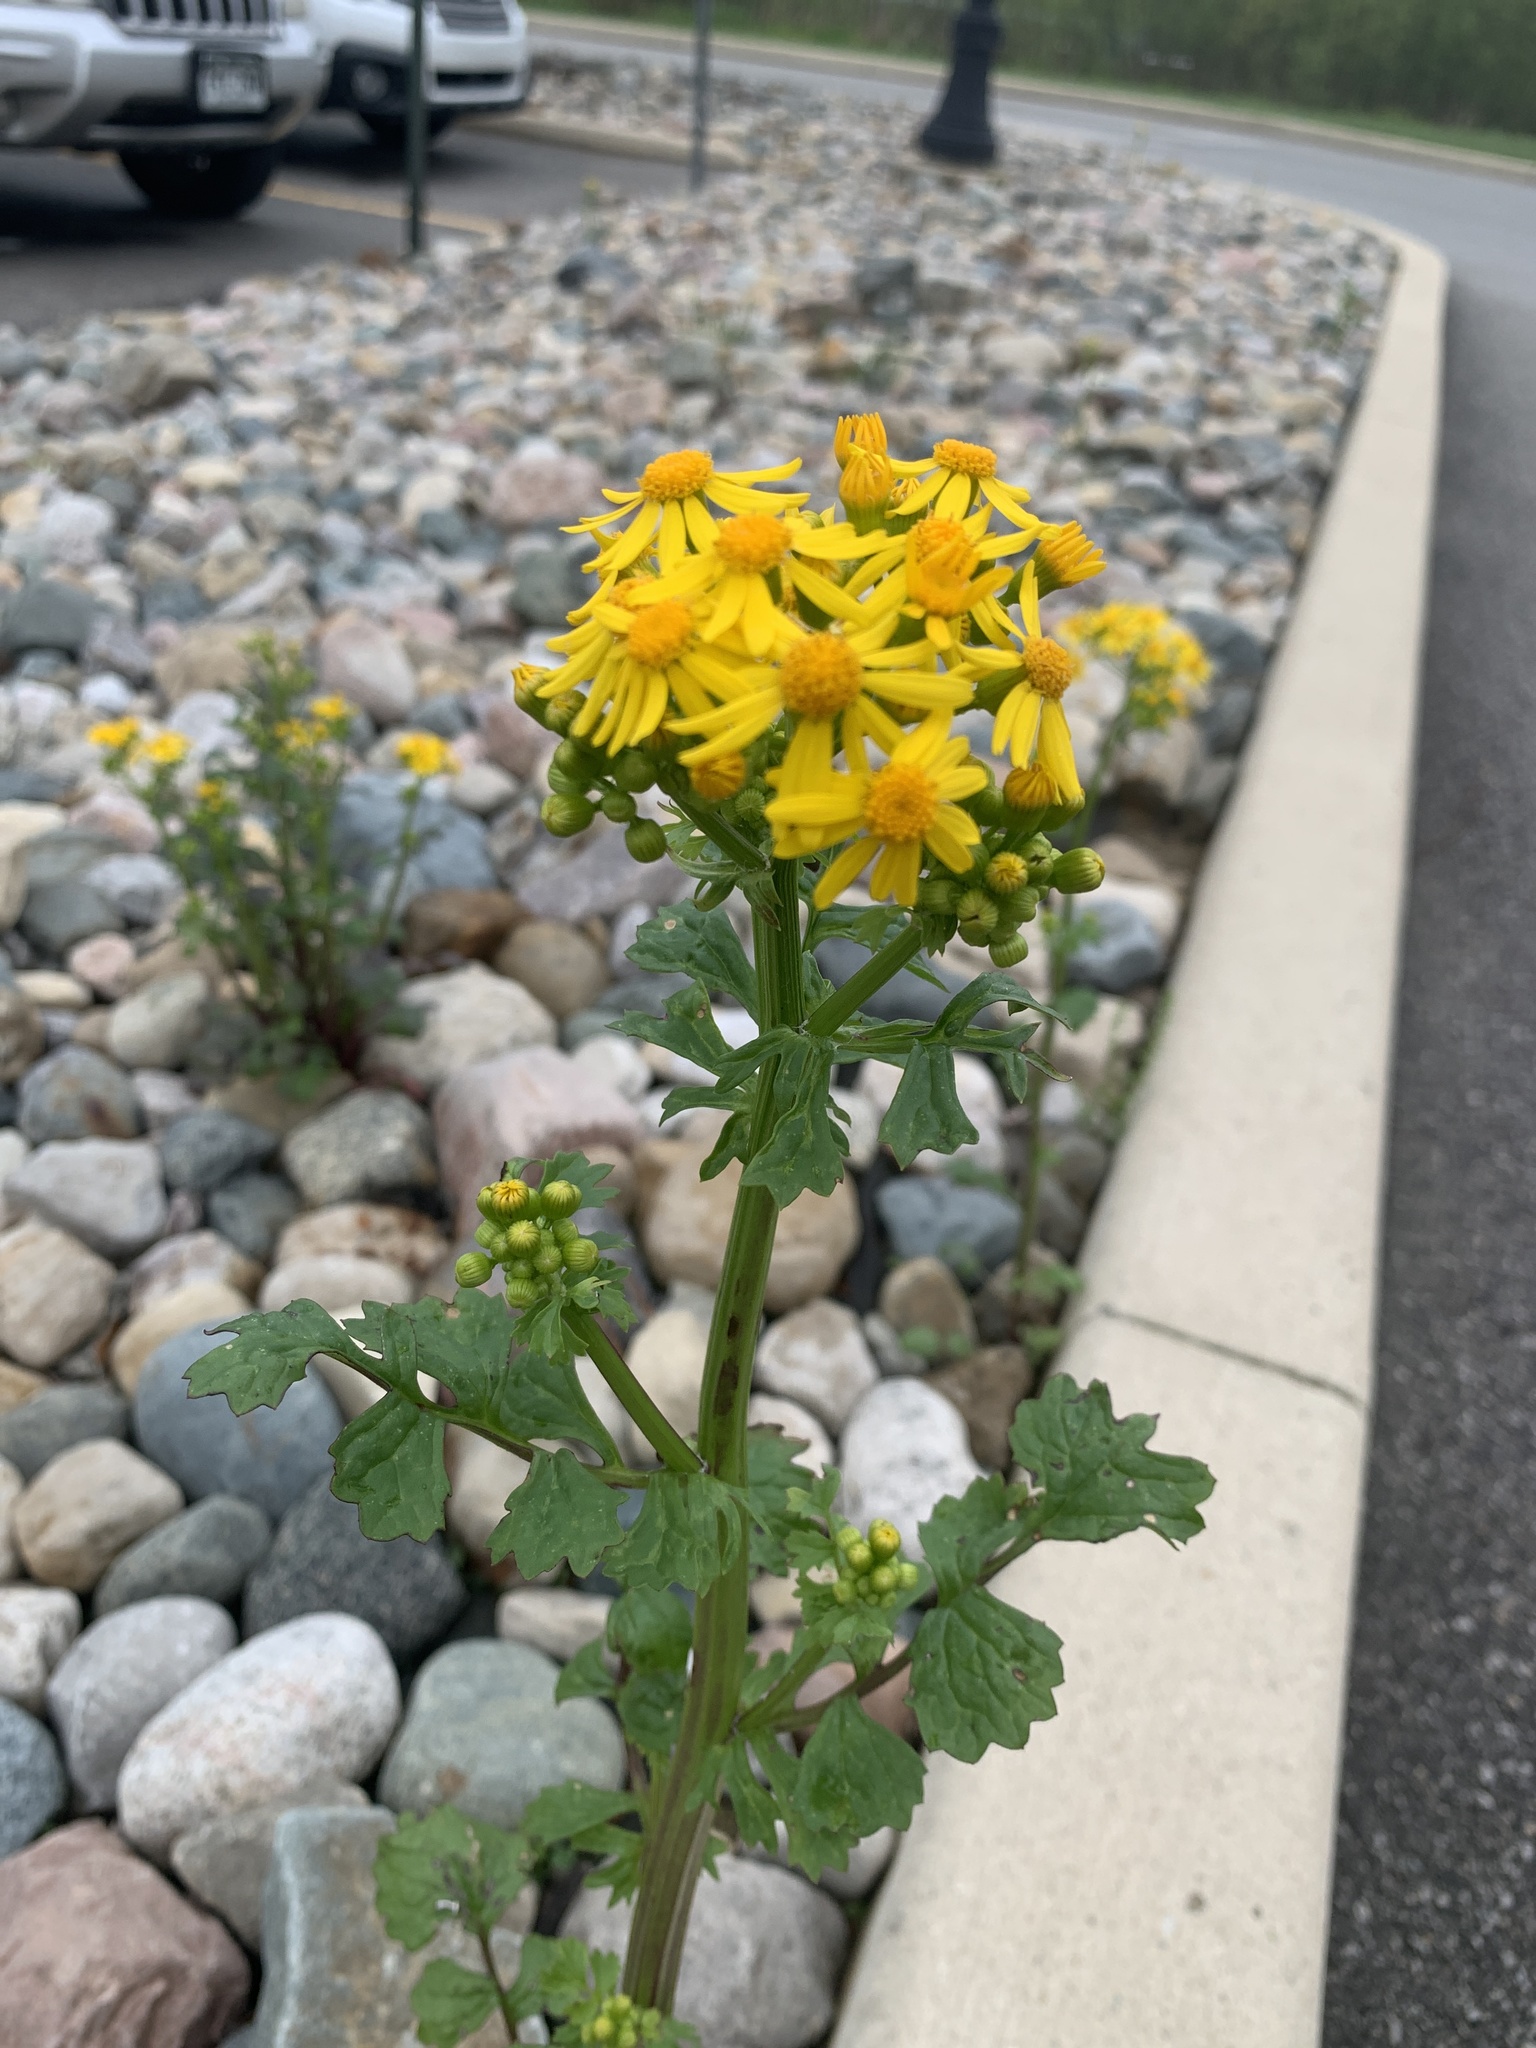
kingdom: Plantae
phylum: Tracheophyta
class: Magnoliopsida
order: Asterales
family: Asteraceae
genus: Packera
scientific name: Packera glabella
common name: Butterweed
